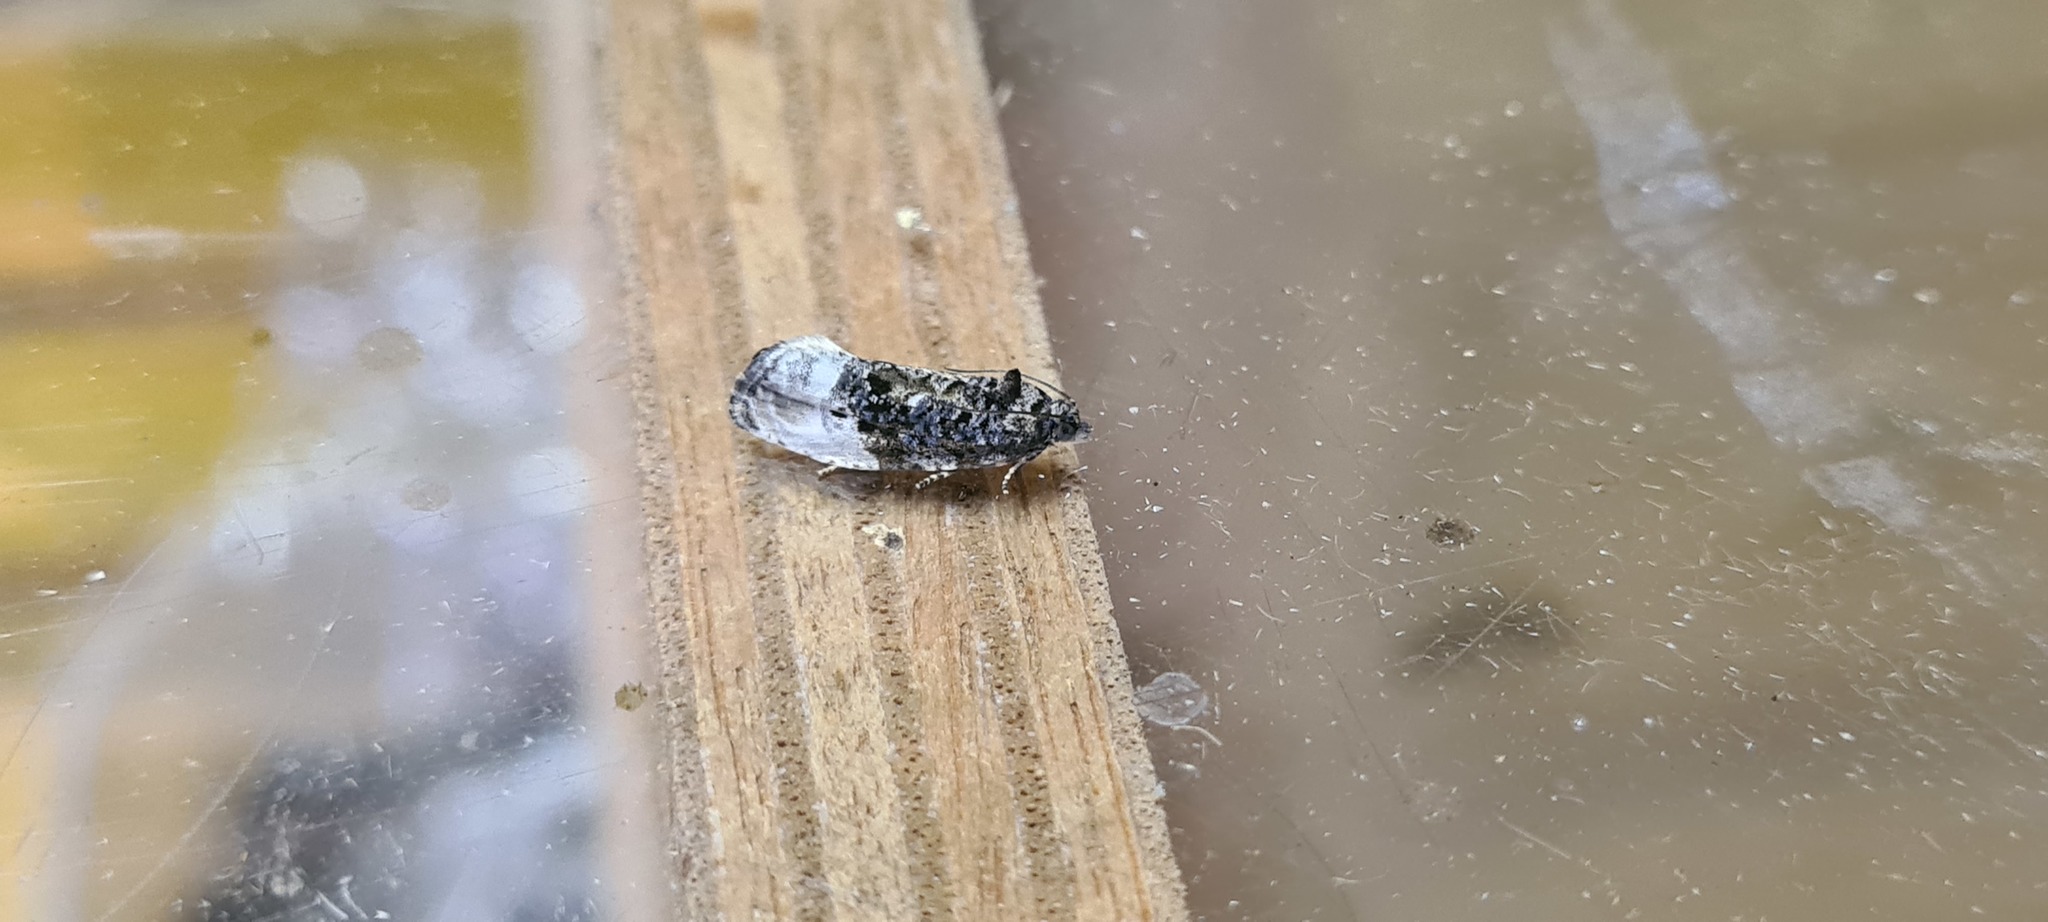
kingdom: Animalia
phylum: Arthropoda
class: Insecta
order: Lepidoptera
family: Tortricidae
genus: Hedya
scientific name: Hedya nubiferana
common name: Marbled orchard tortrix
